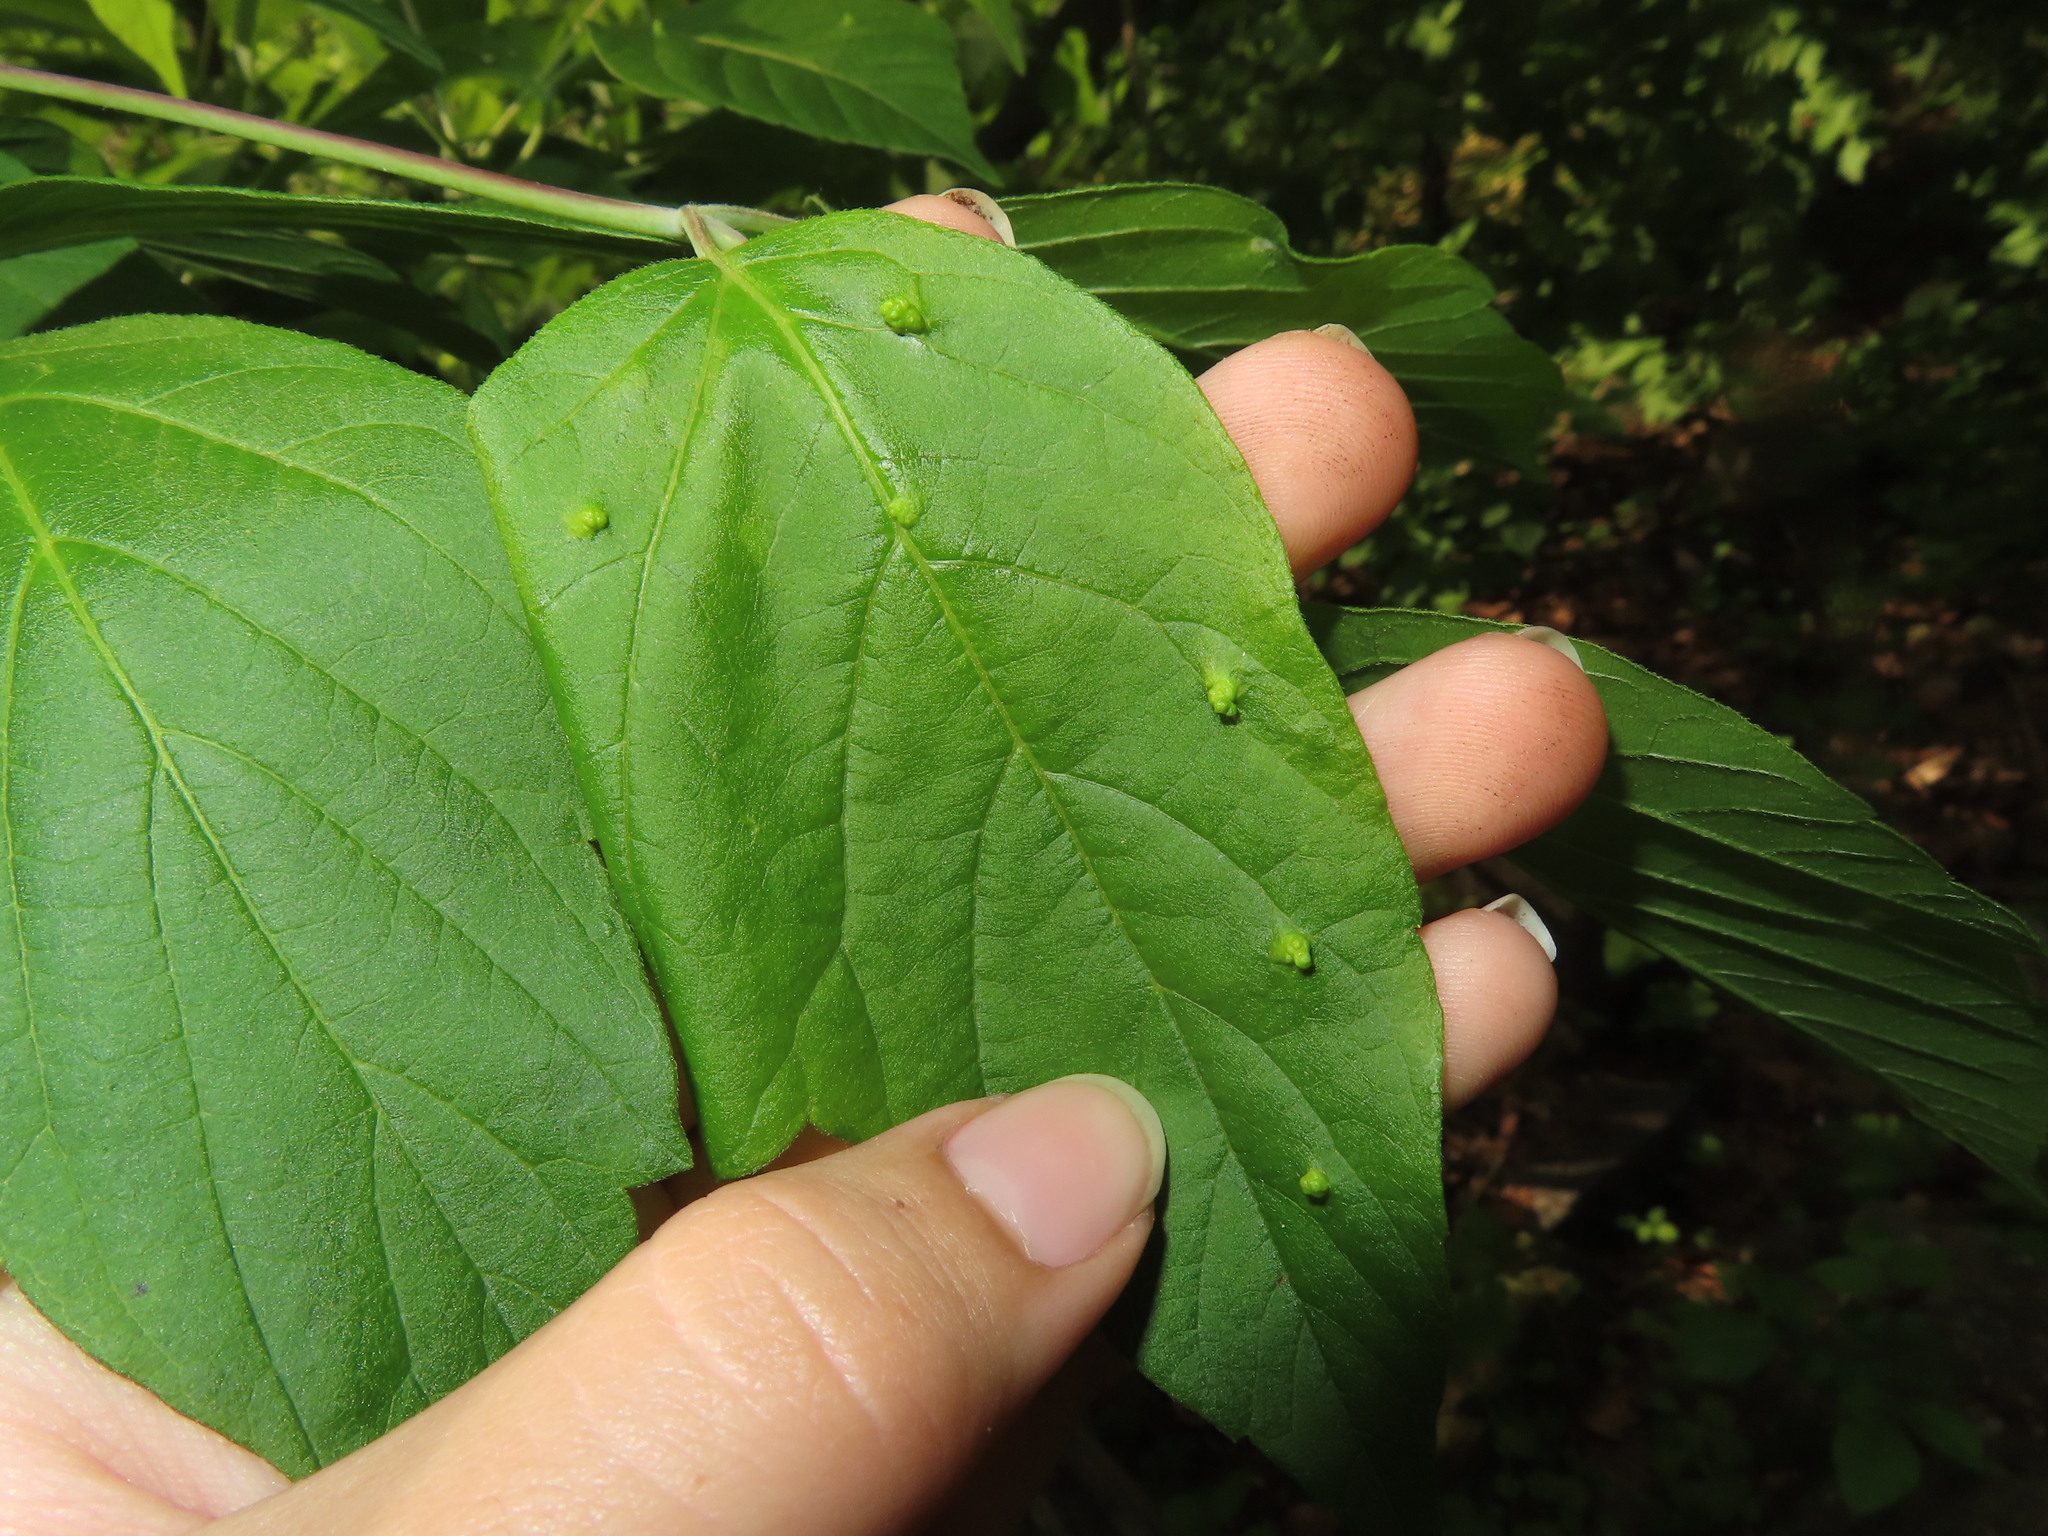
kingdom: Animalia
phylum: Arthropoda
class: Arachnida
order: Trombidiformes
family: Eriophyidae
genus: Aceria
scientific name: Aceria
